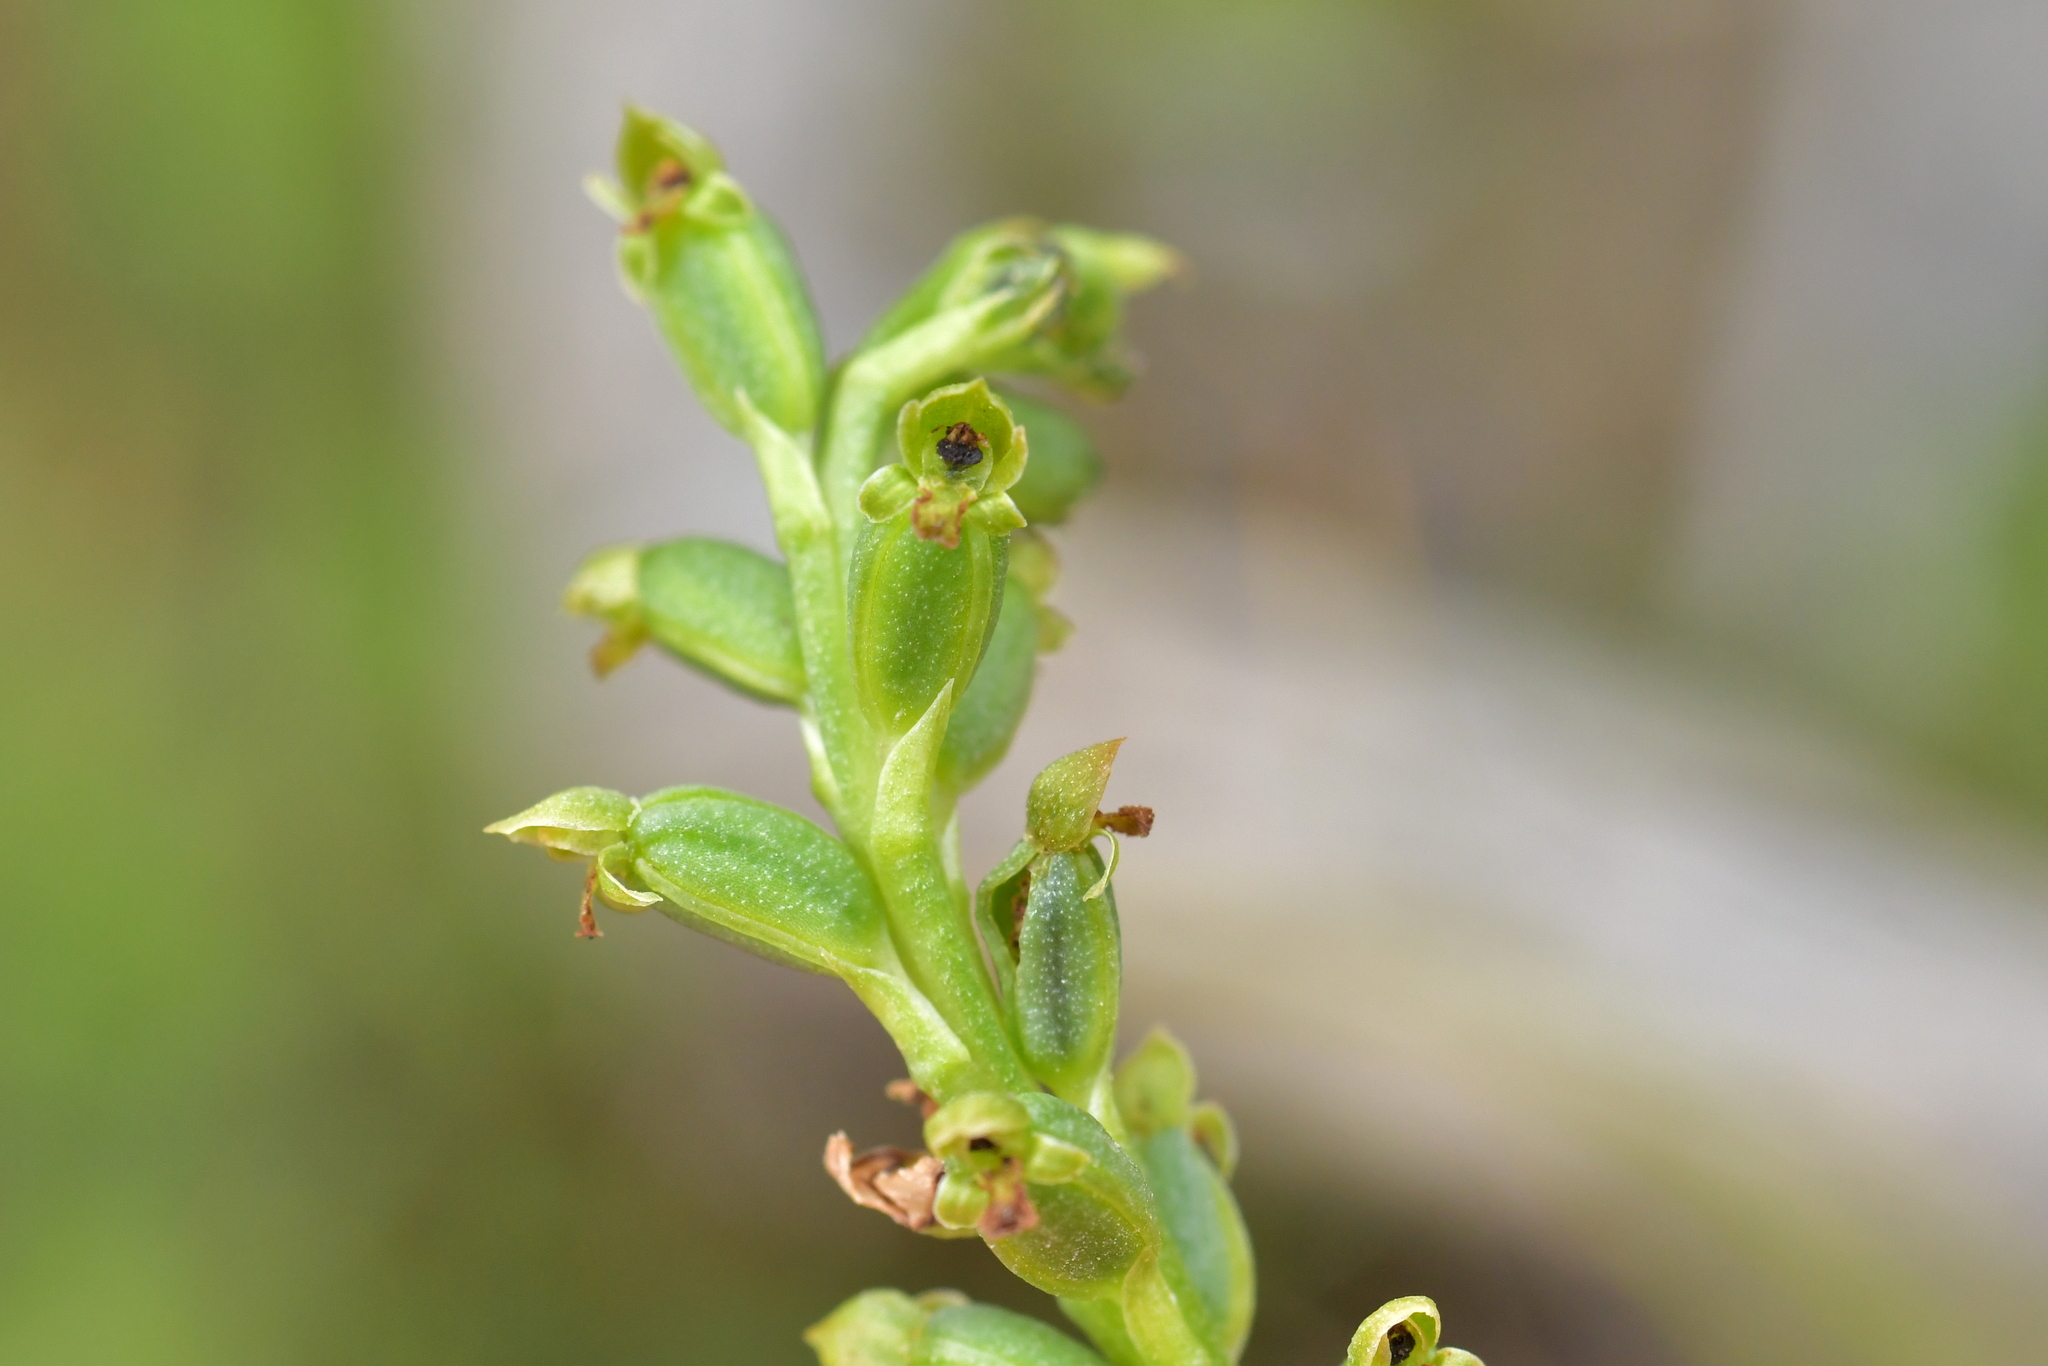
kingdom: Plantae
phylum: Tracheophyta
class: Liliopsida
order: Asparagales
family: Orchidaceae
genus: Microtis
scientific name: Microtis unifolia
